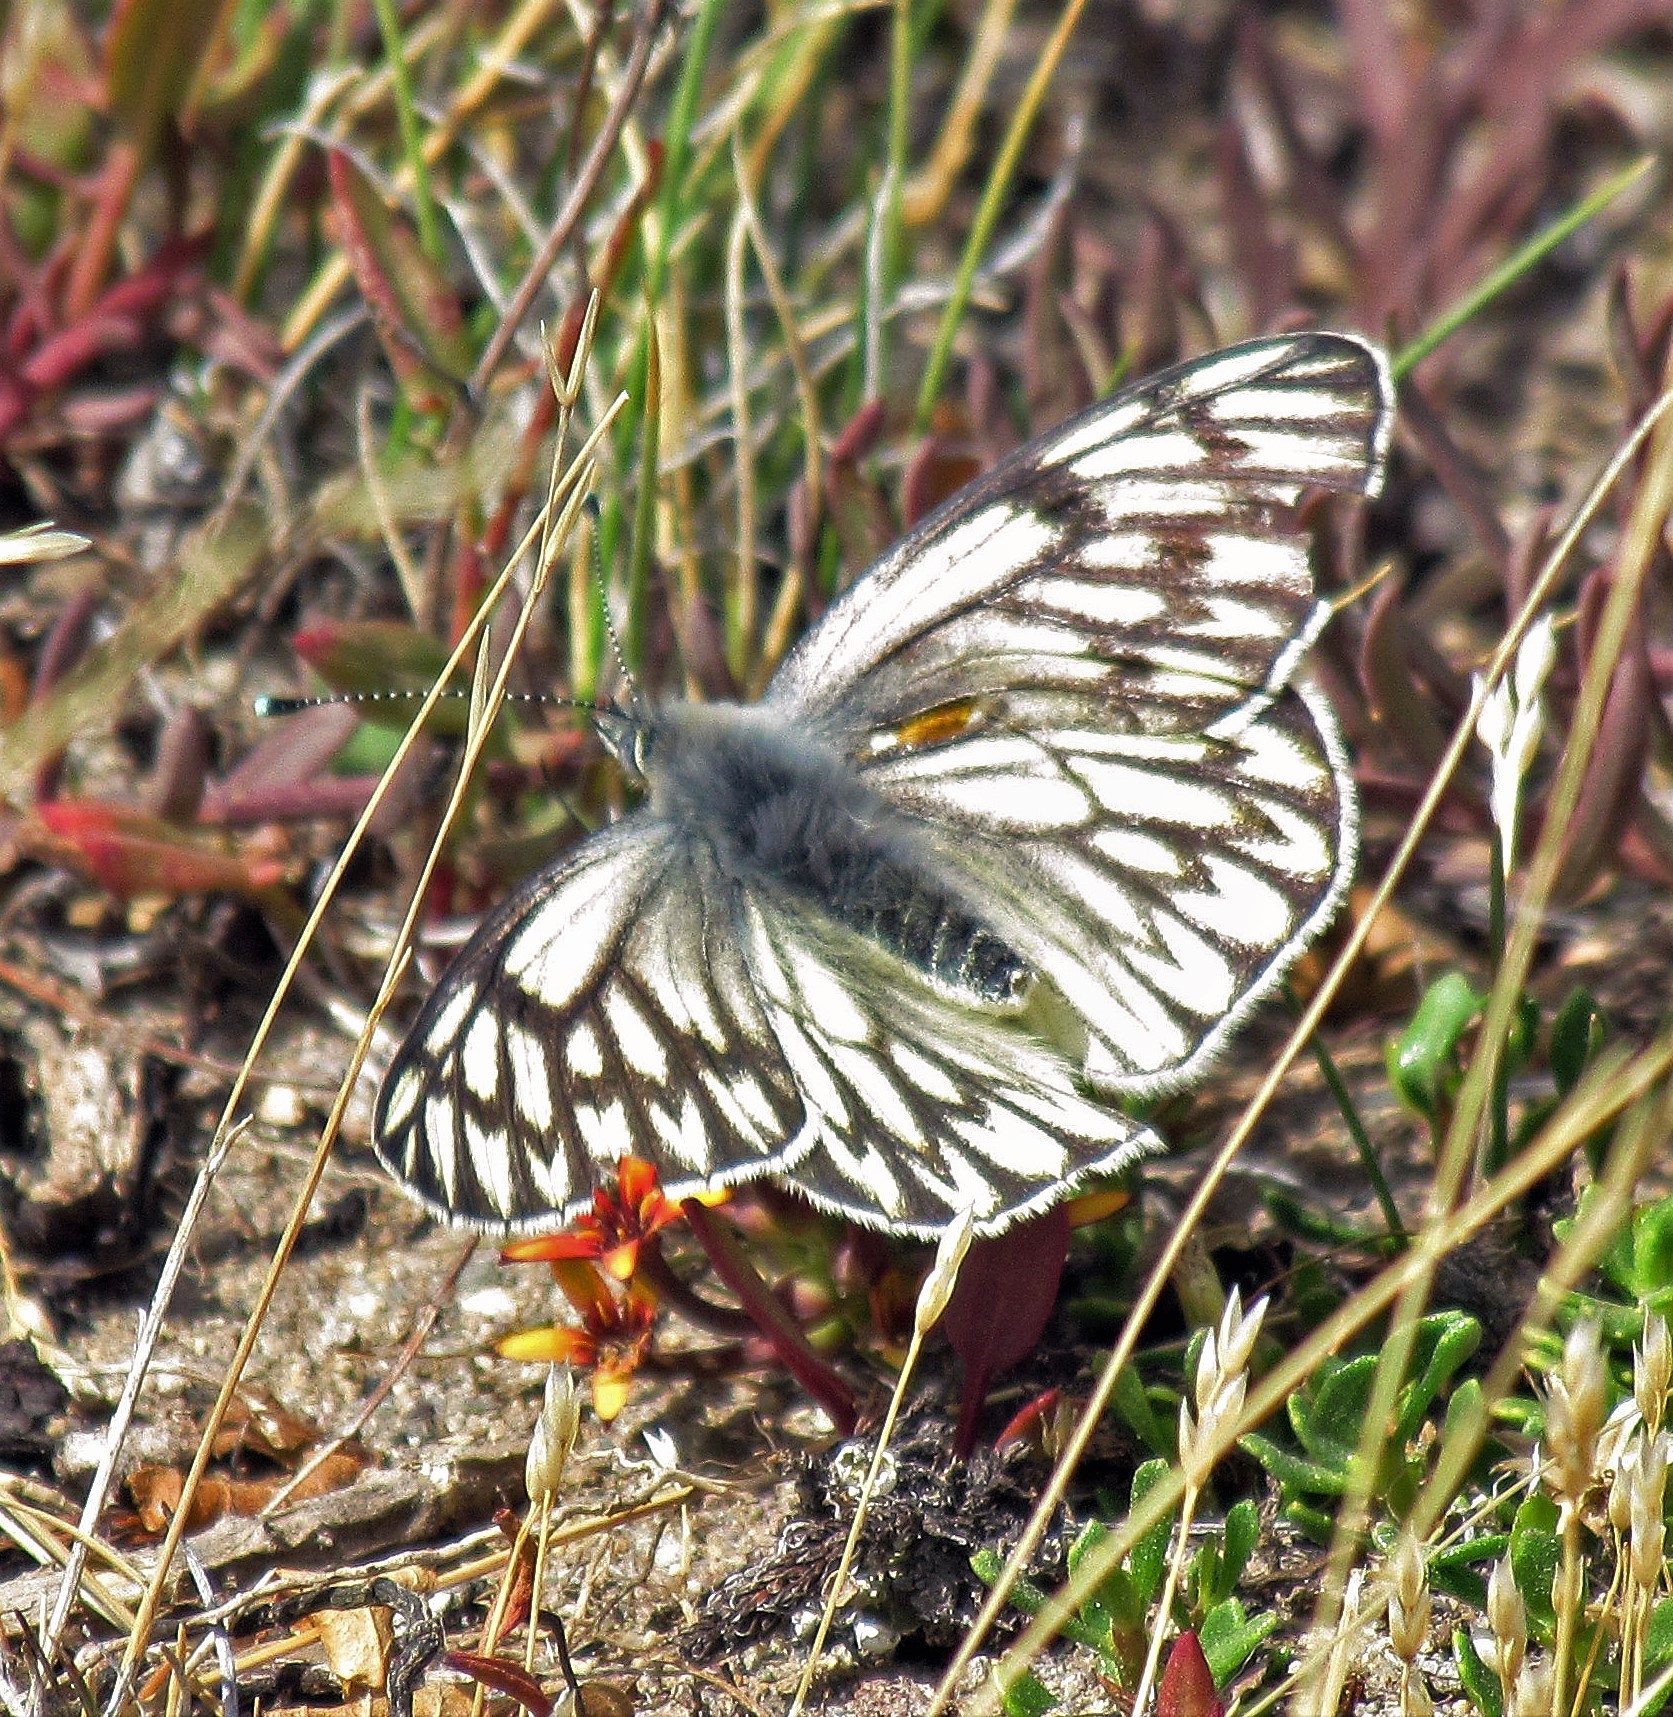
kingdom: Animalia
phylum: Arthropoda
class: Insecta
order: Lepidoptera
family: Pieridae
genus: Tatochila
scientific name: Tatochila theodice
